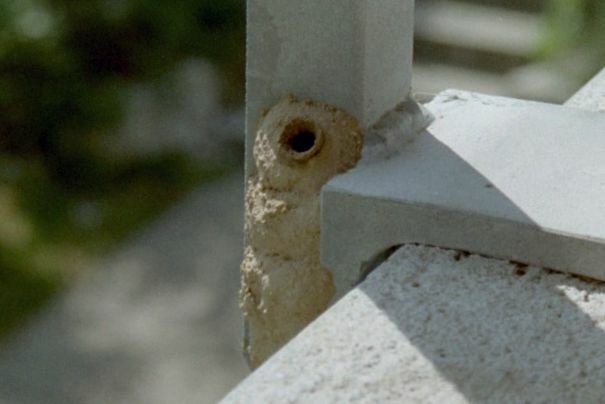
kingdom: Animalia
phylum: Arthropoda
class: Insecta
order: Hymenoptera
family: Eumenidae
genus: Delta
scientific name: Delta unguiculatum
